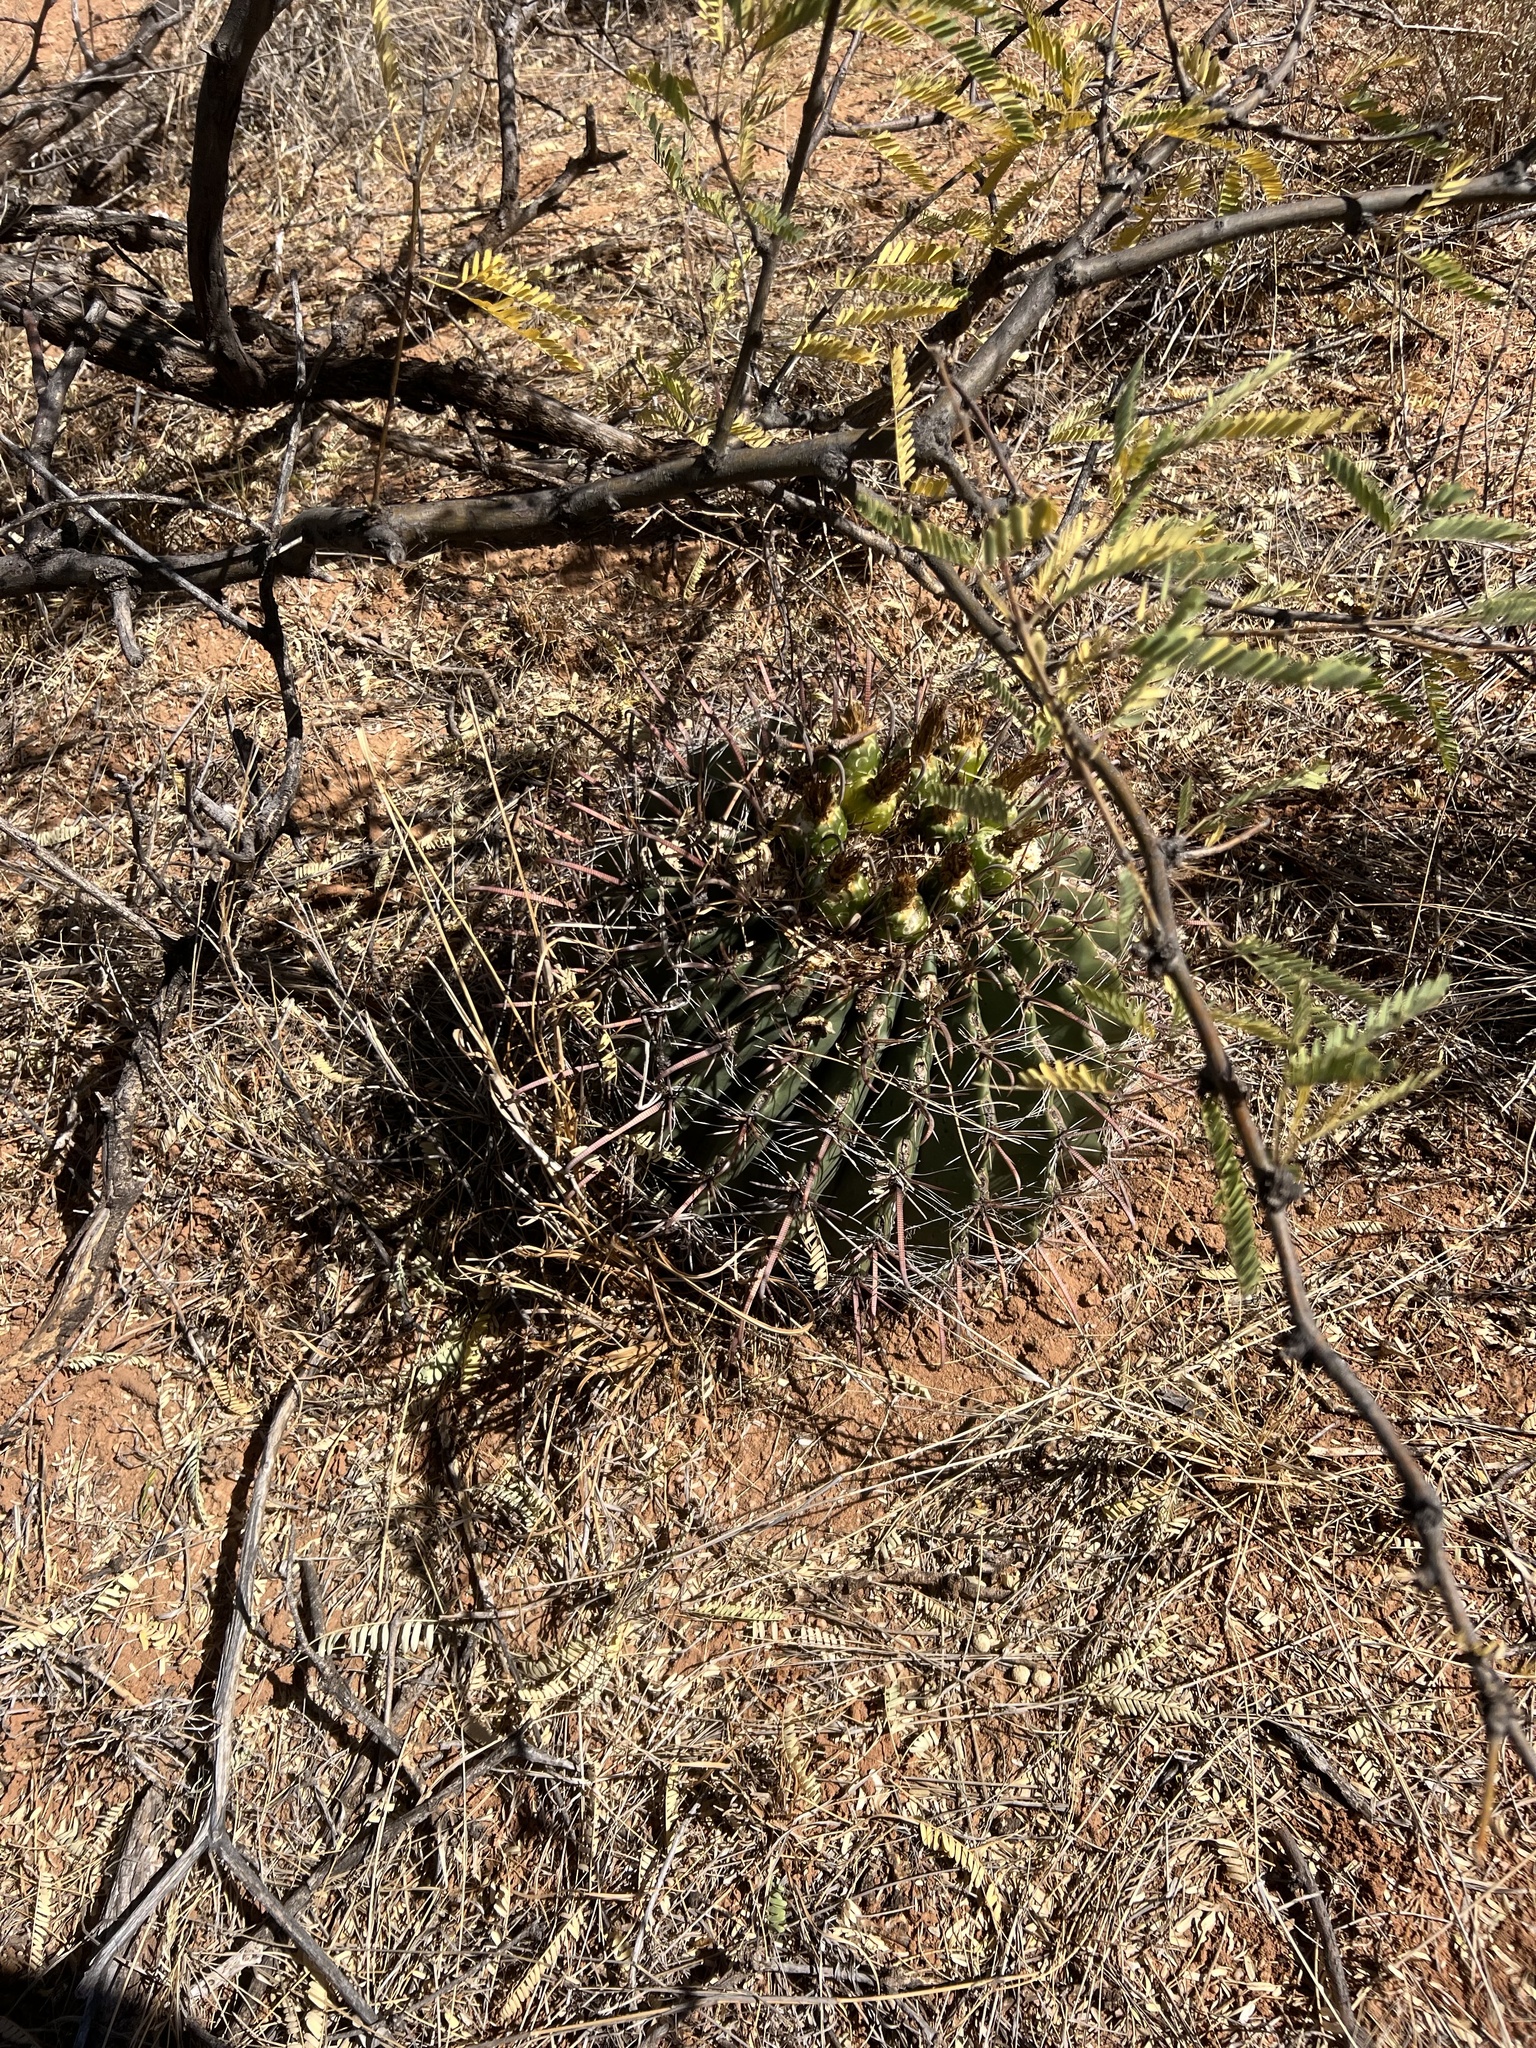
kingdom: Plantae
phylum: Tracheophyta
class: Magnoliopsida
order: Caryophyllales
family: Cactaceae
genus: Ferocactus
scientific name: Ferocactus wislizeni
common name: Candy barrel cactus
